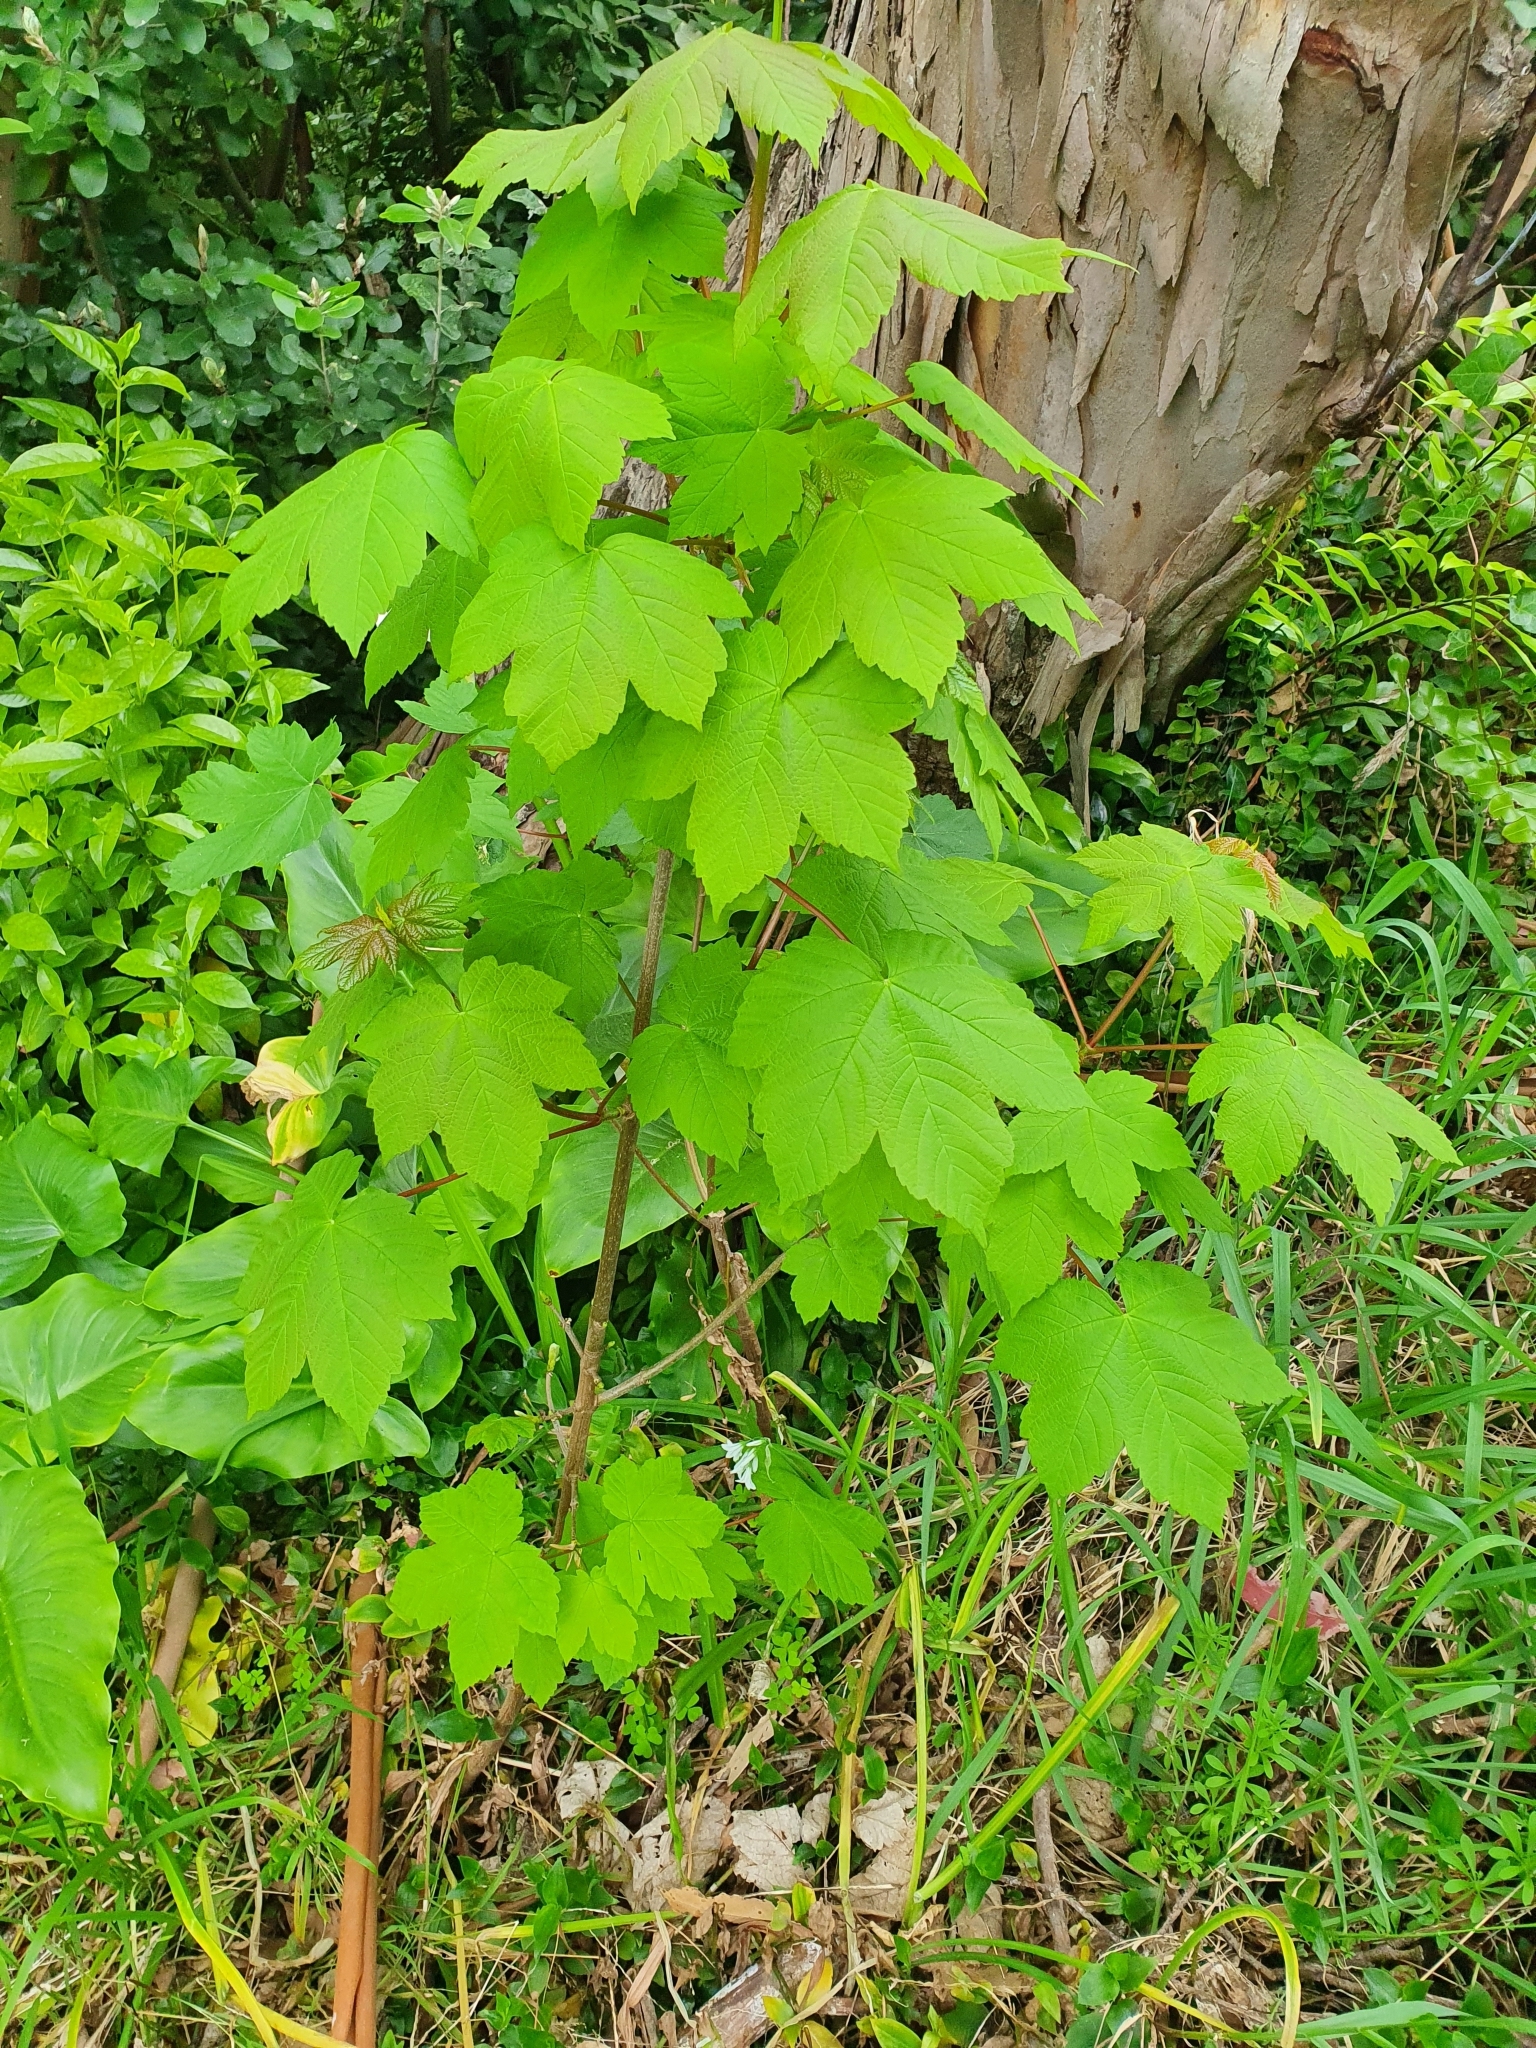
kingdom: Plantae
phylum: Tracheophyta
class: Magnoliopsida
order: Sapindales
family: Sapindaceae
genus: Acer
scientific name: Acer pseudoplatanus
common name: Sycamore
